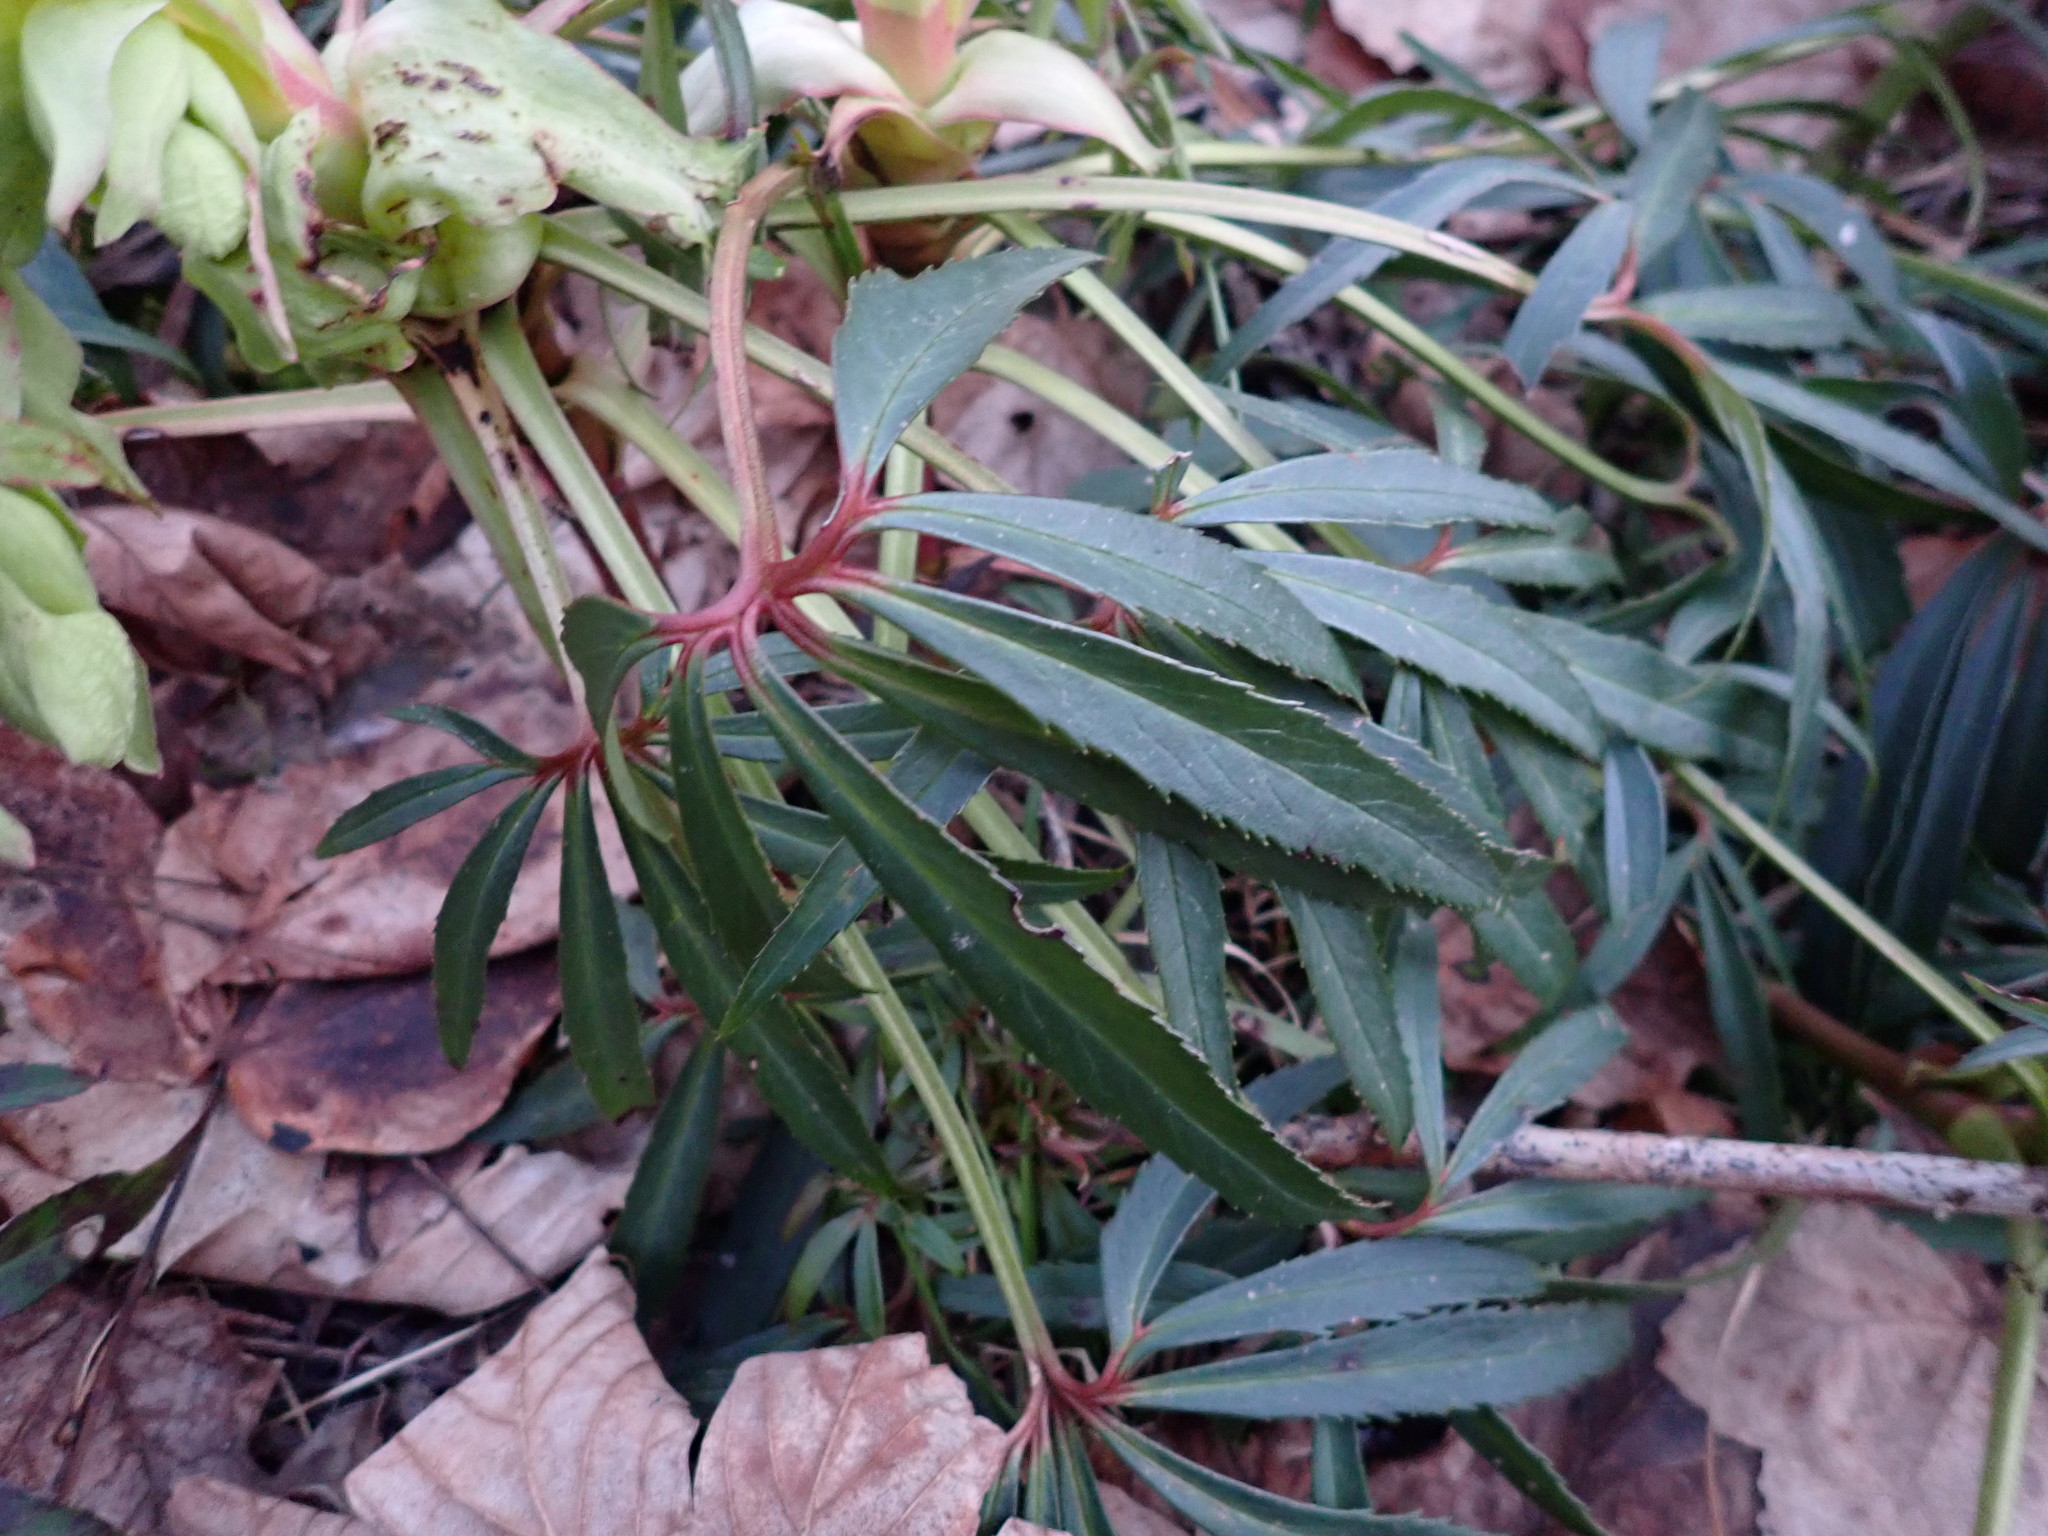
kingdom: Plantae
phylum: Tracheophyta
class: Magnoliopsida
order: Ranunculales
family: Ranunculaceae
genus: Helleborus
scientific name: Helleborus foetidus
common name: Stinking hellebore
